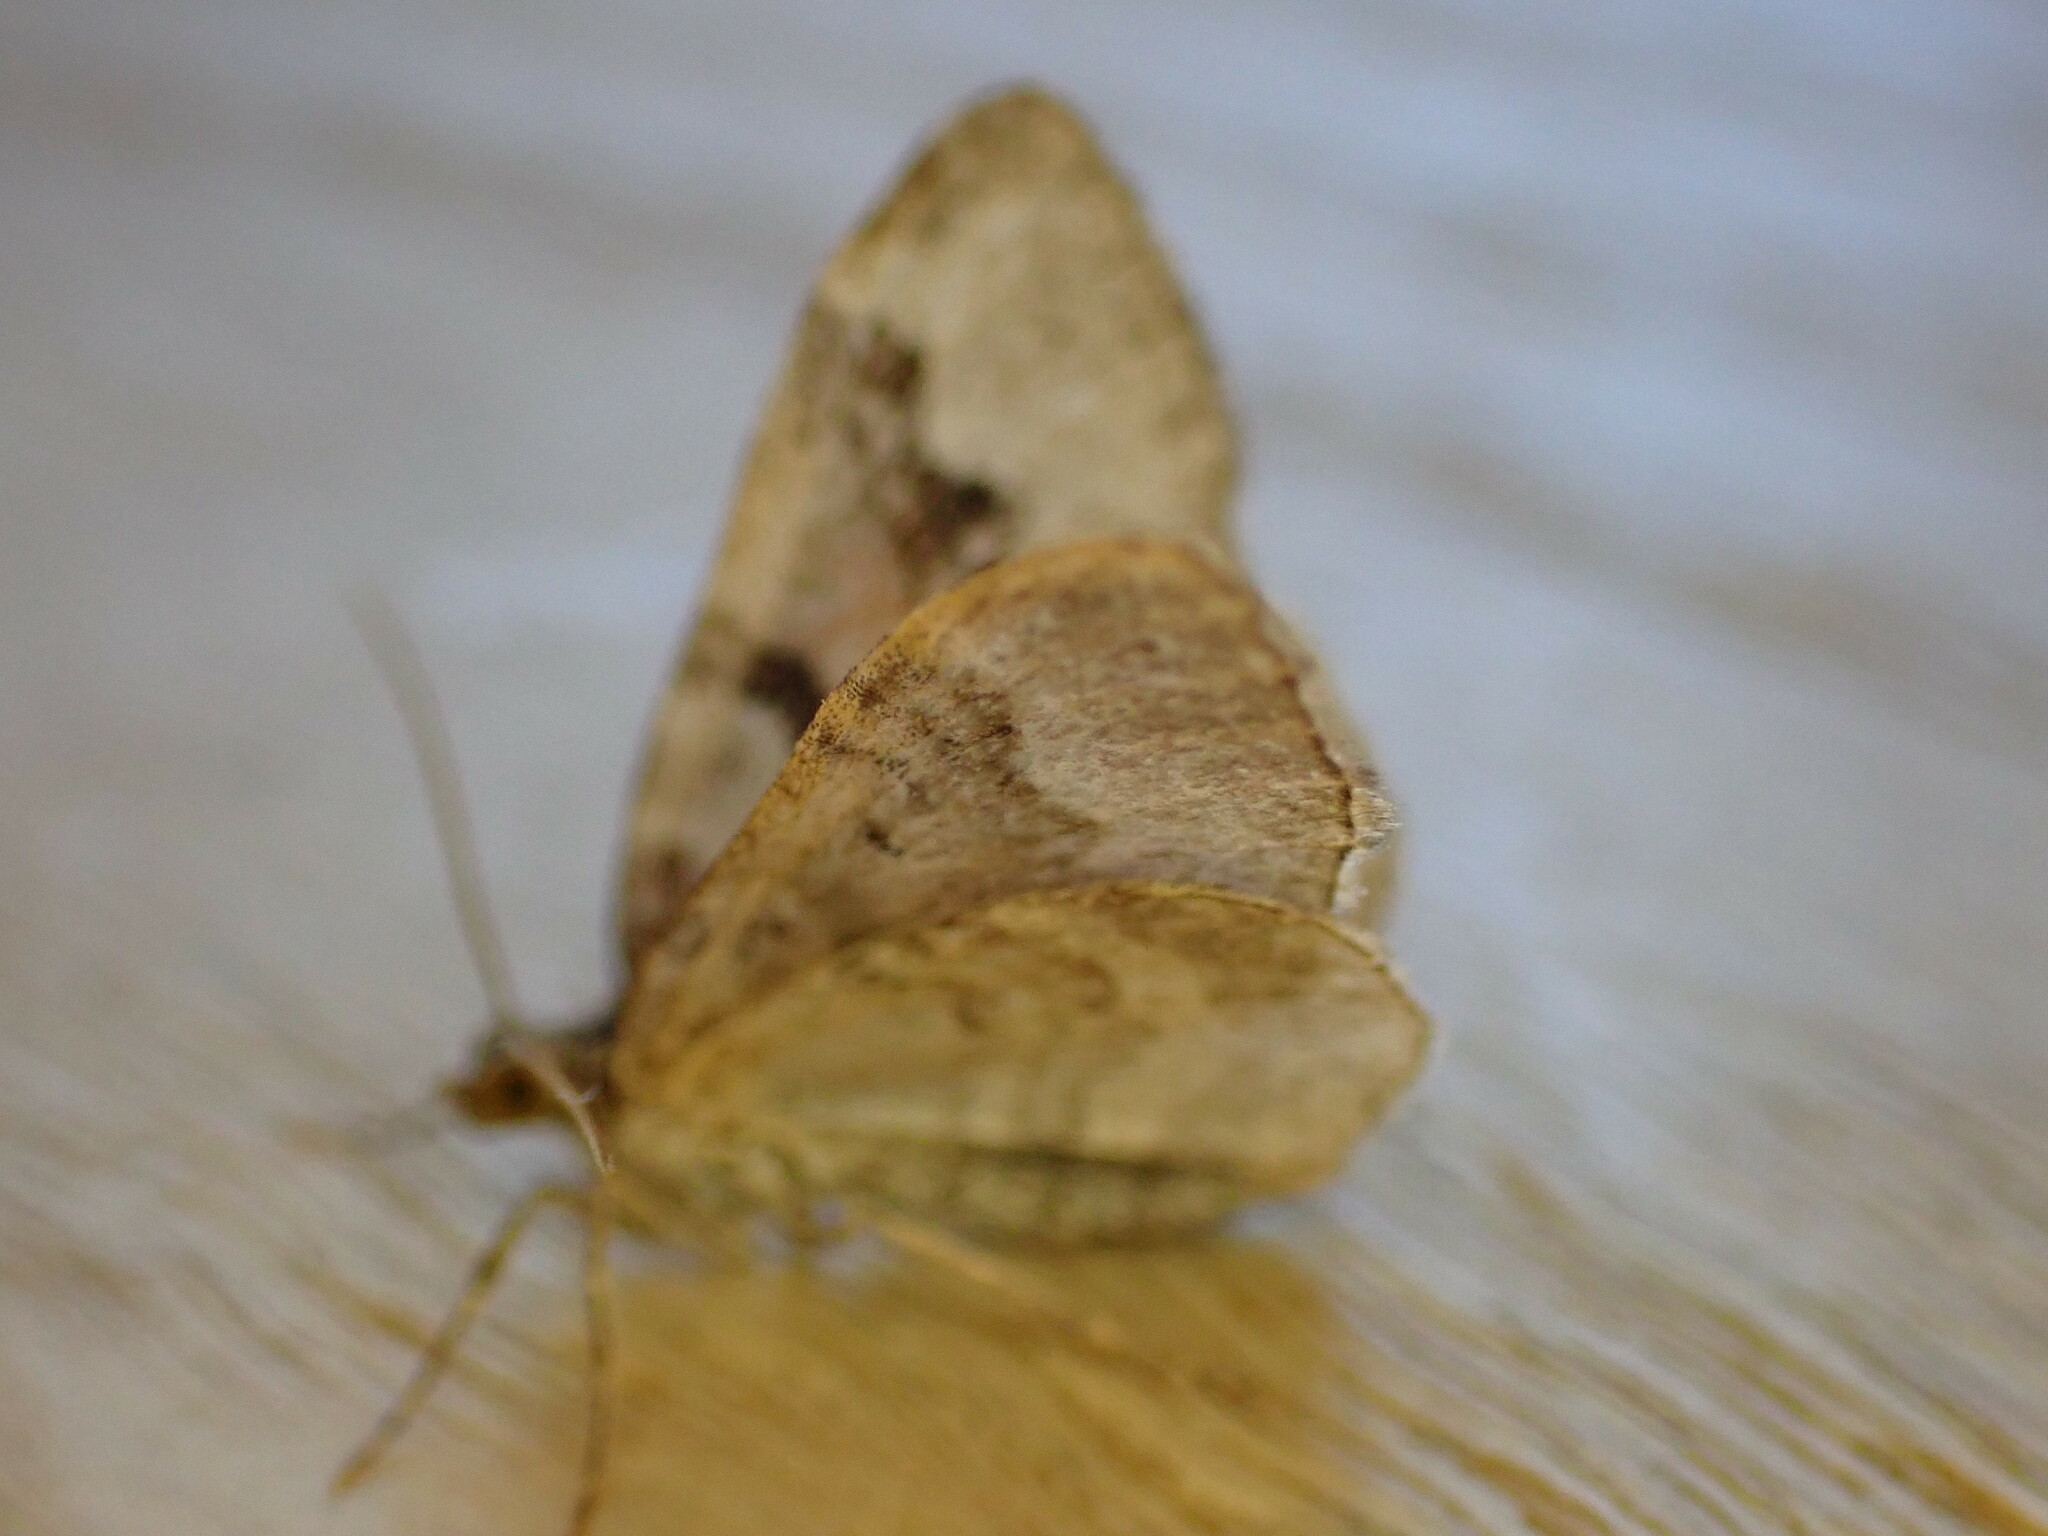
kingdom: Animalia
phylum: Arthropoda
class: Insecta
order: Lepidoptera
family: Geometridae
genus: Xanthorhoe
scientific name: Xanthorhoe designata
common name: Flame carpet
